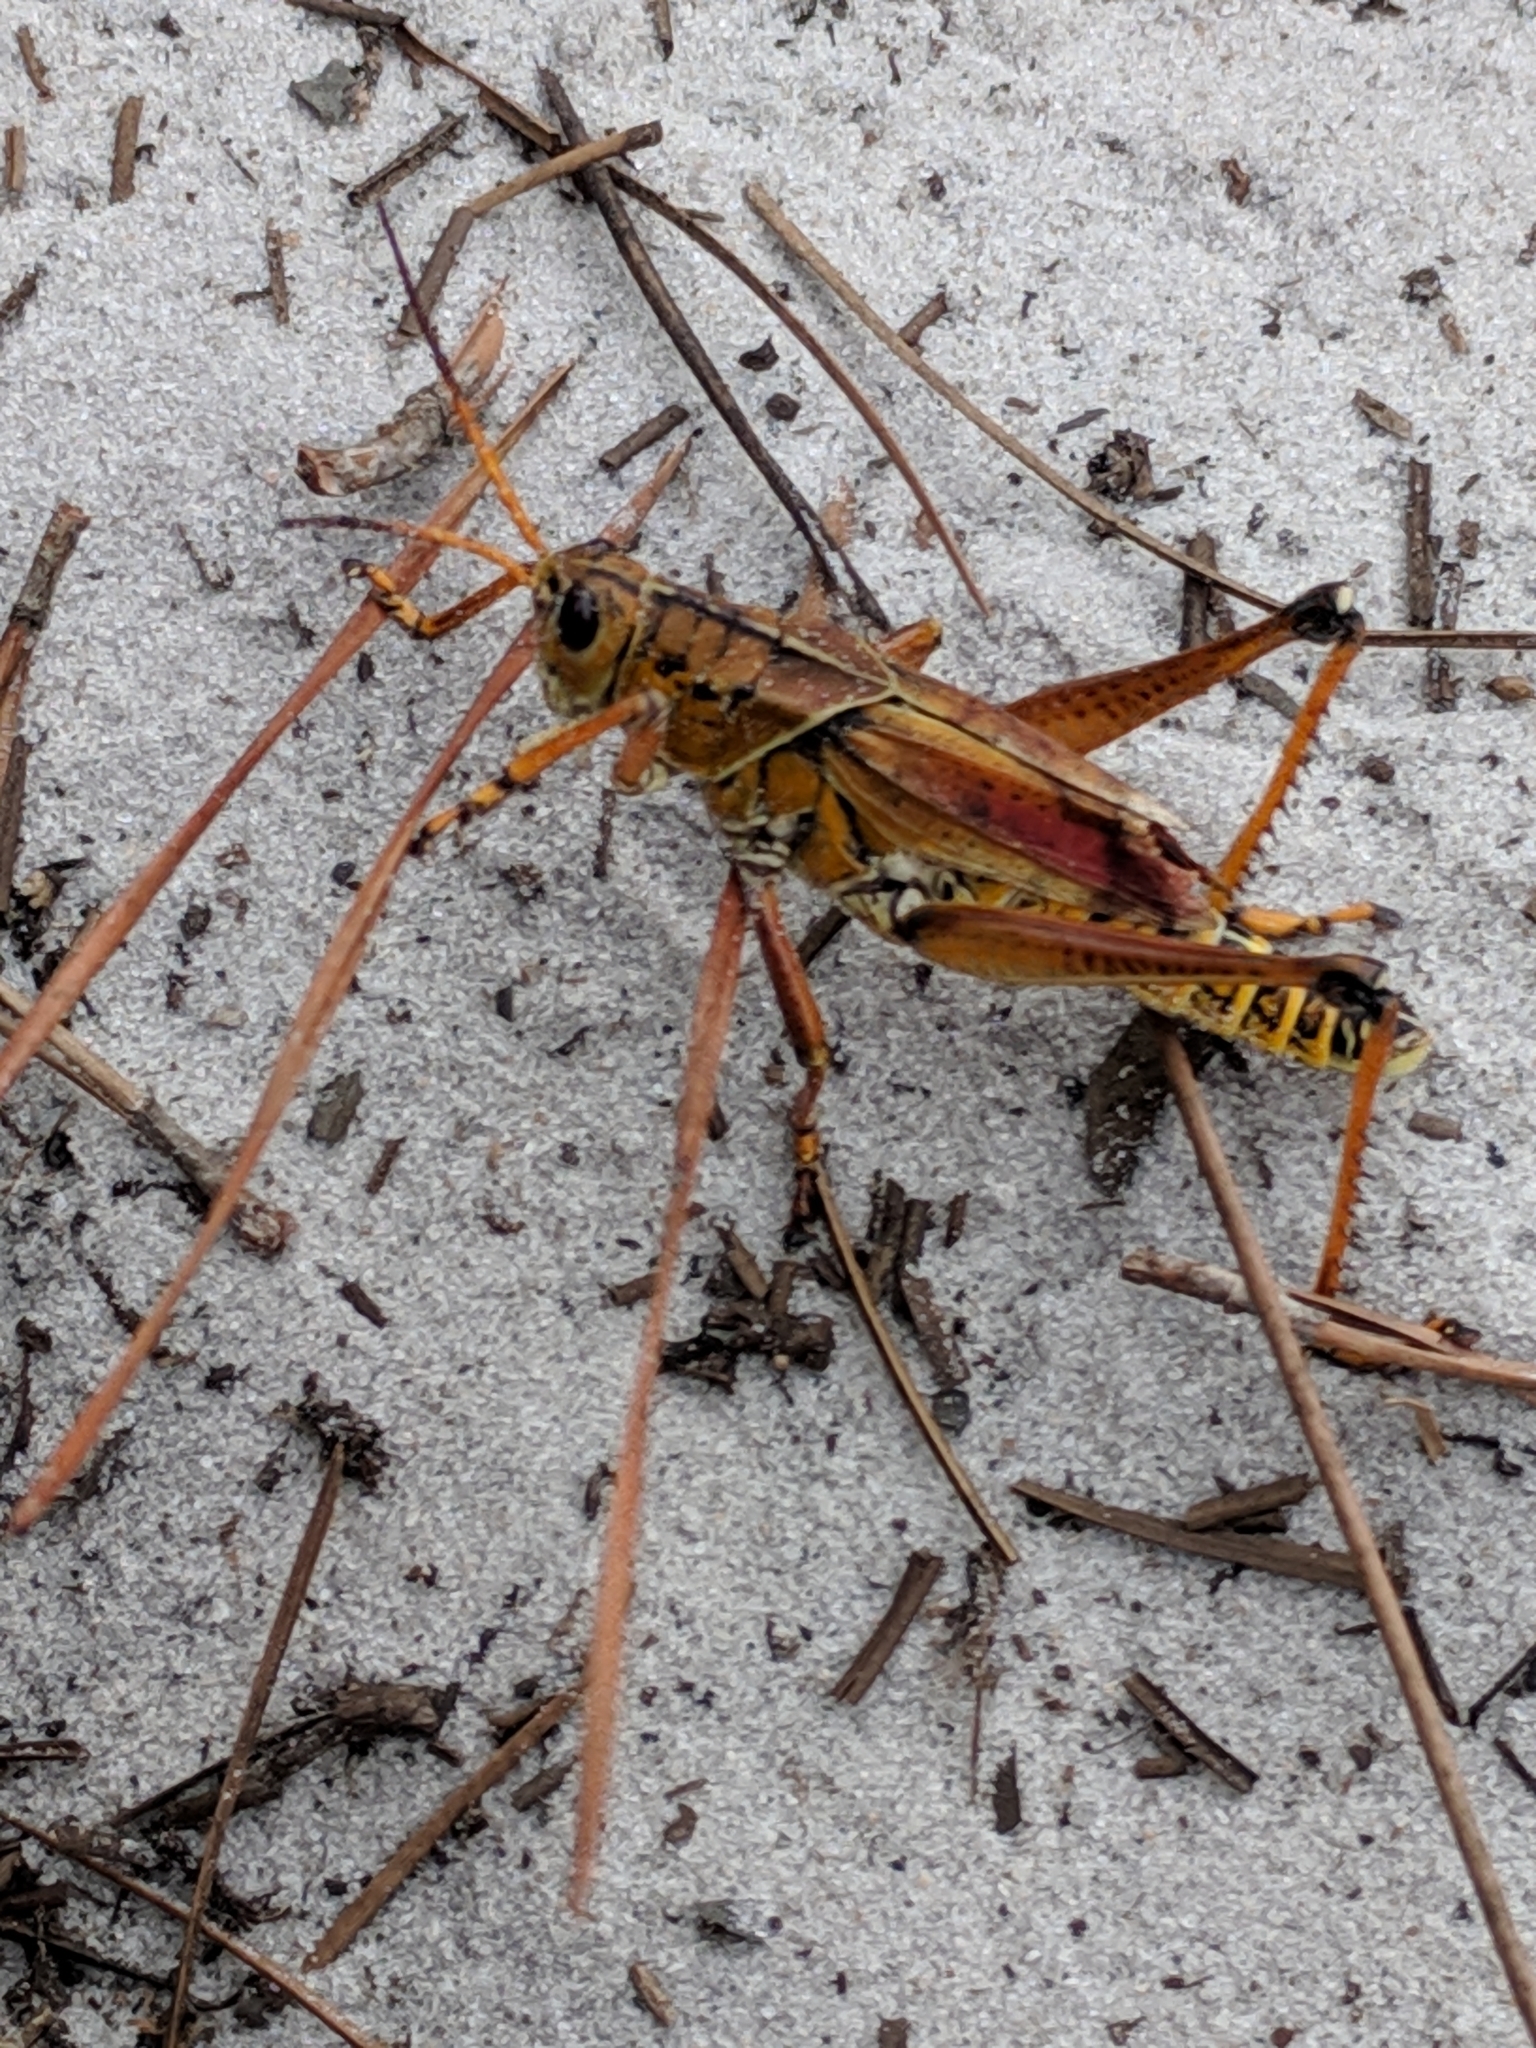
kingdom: Animalia
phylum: Arthropoda
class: Insecta
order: Orthoptera
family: Romaleidae
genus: Romalea
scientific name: Romalea microptera
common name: Eastern lubber grasshopper
